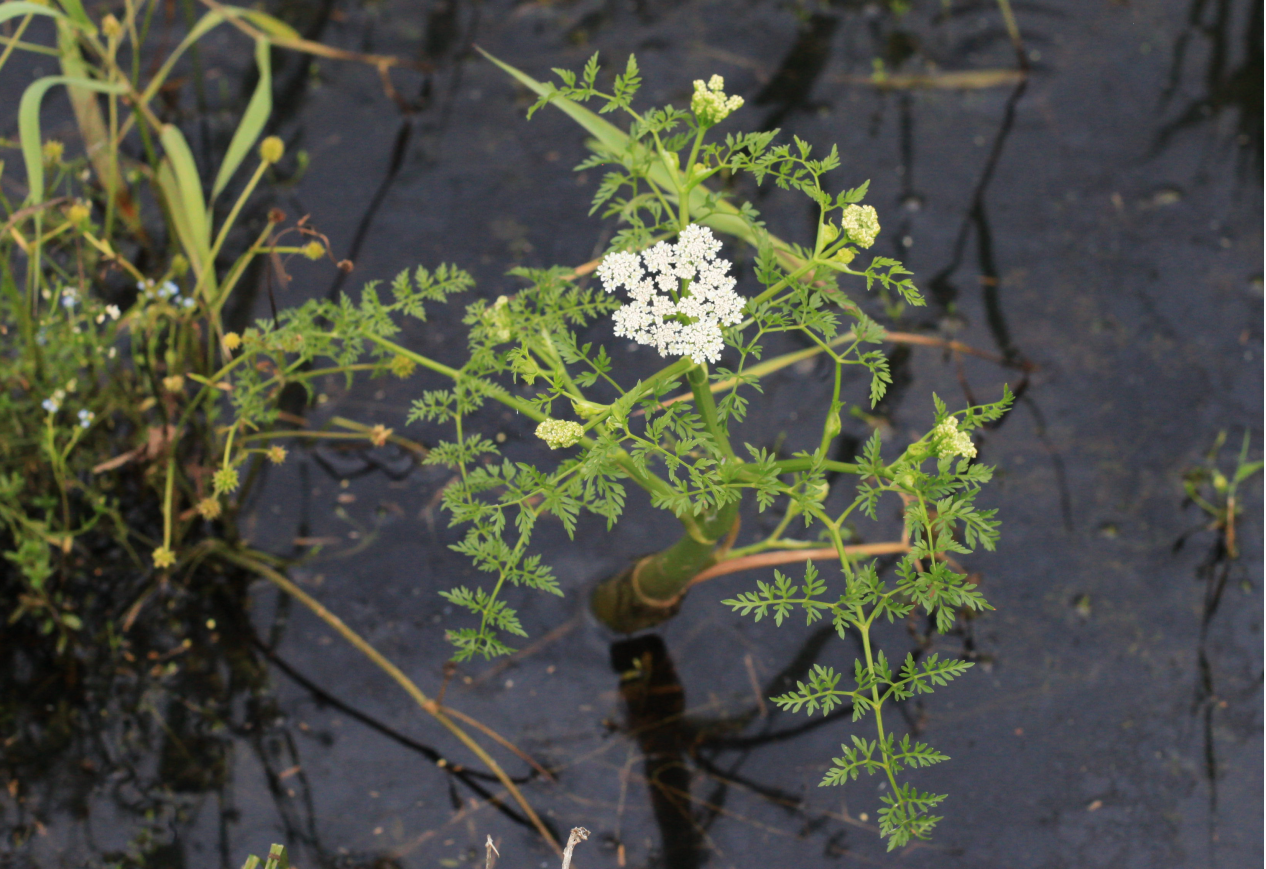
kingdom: Plantae
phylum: Tracheophyta
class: Magnoliopsida
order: Apiales
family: Apiaceae
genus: Oenanthe
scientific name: Oenanthe aquatica
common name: Fine-leaved water-dropwort
